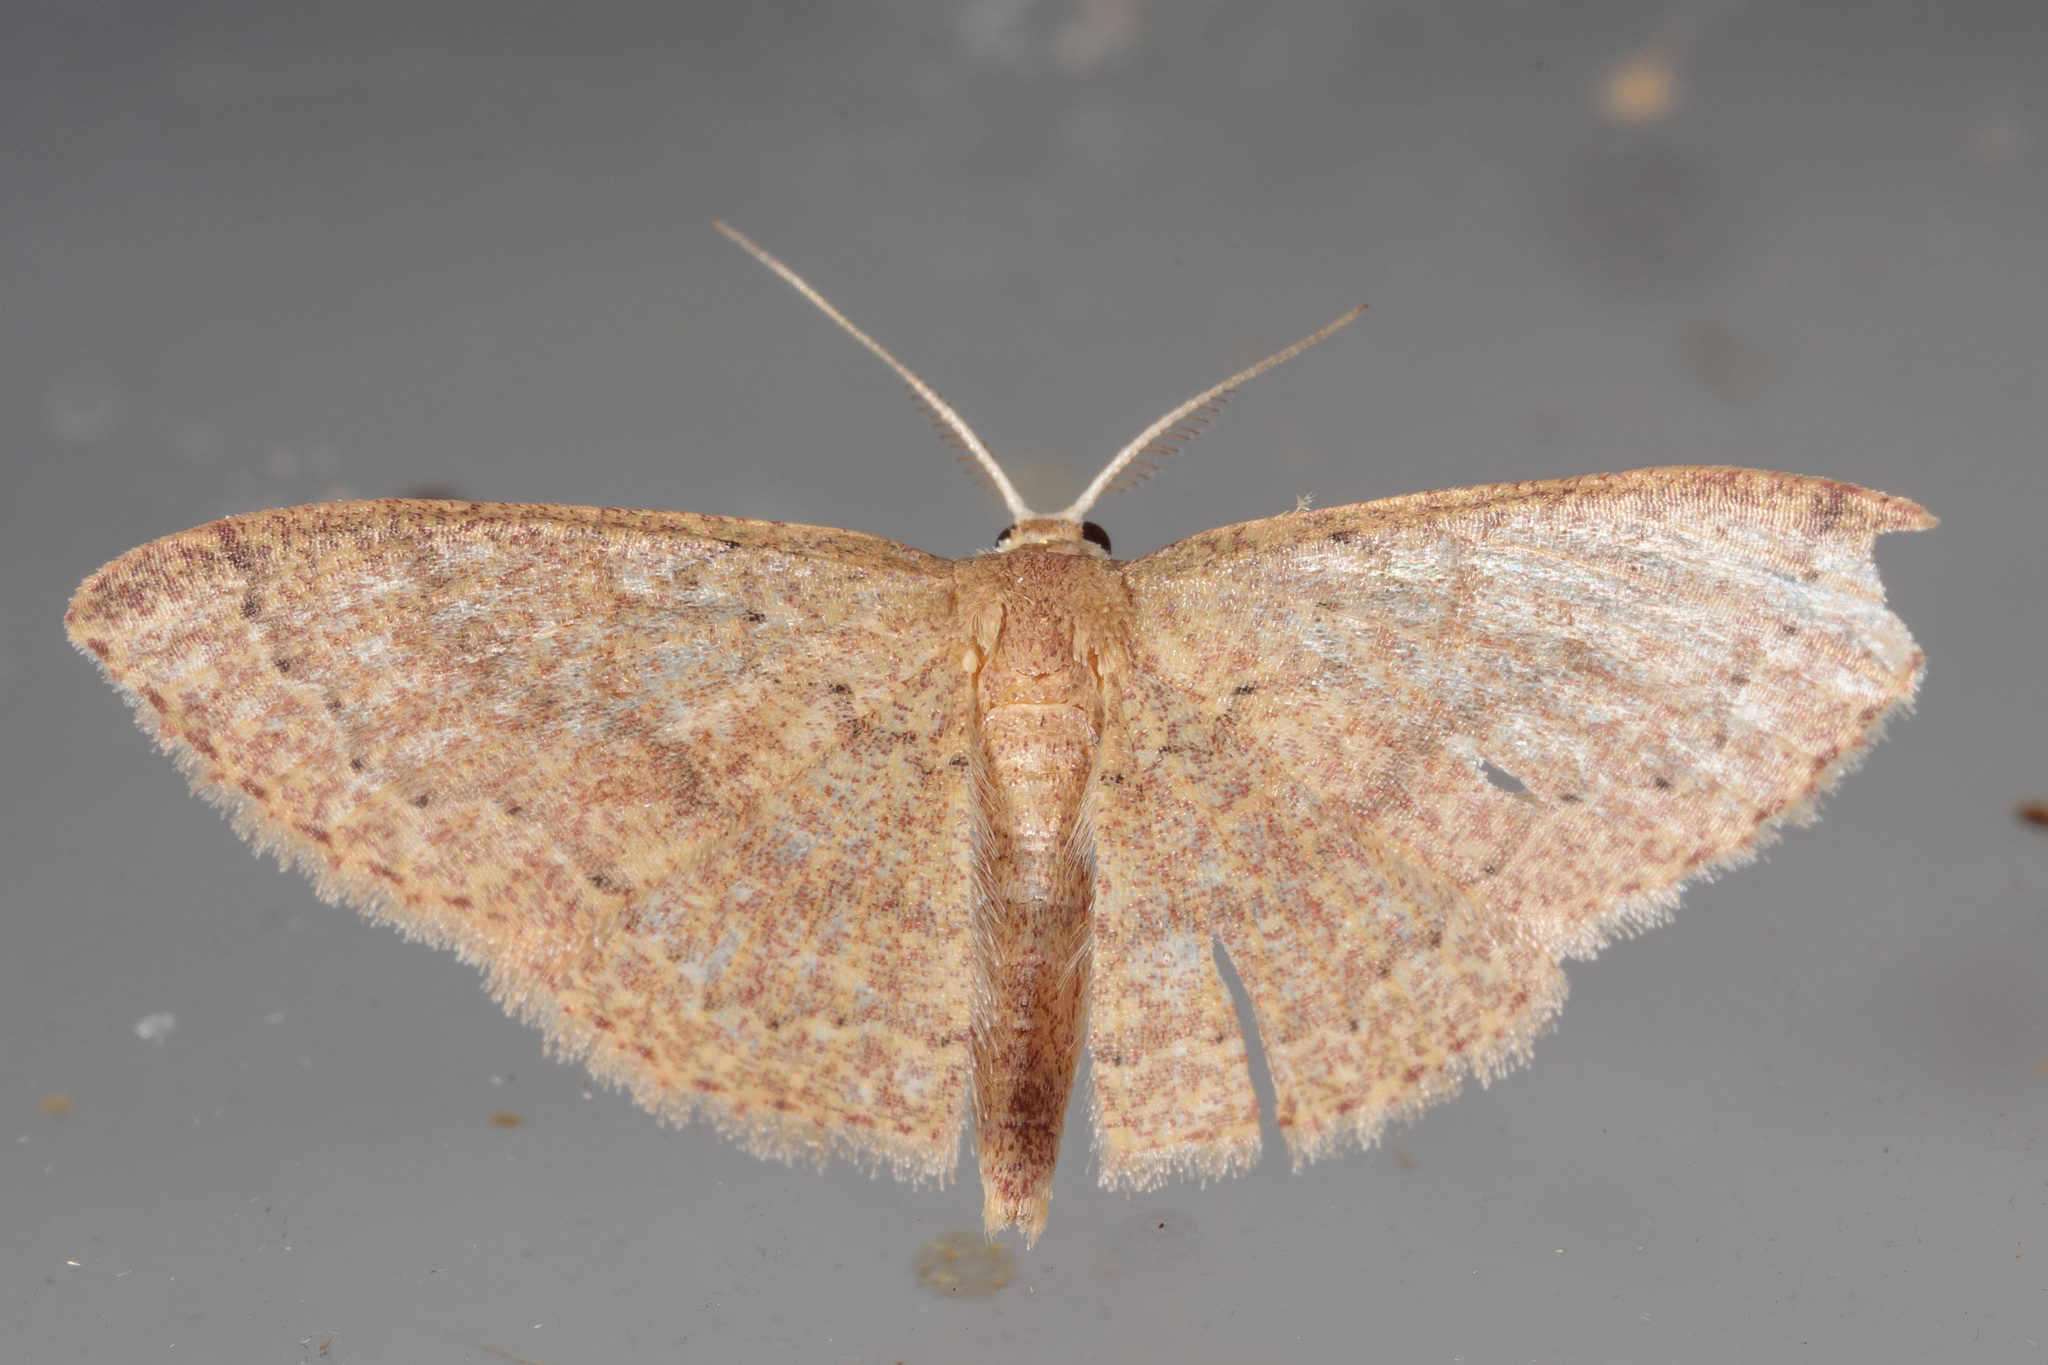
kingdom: Animalia
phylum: Arthropoda
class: Insecta
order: Lepidoptera
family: Geometridae
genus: Pleuroprucha
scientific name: Pleuroprucha insulsaria
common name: Common tan wave
